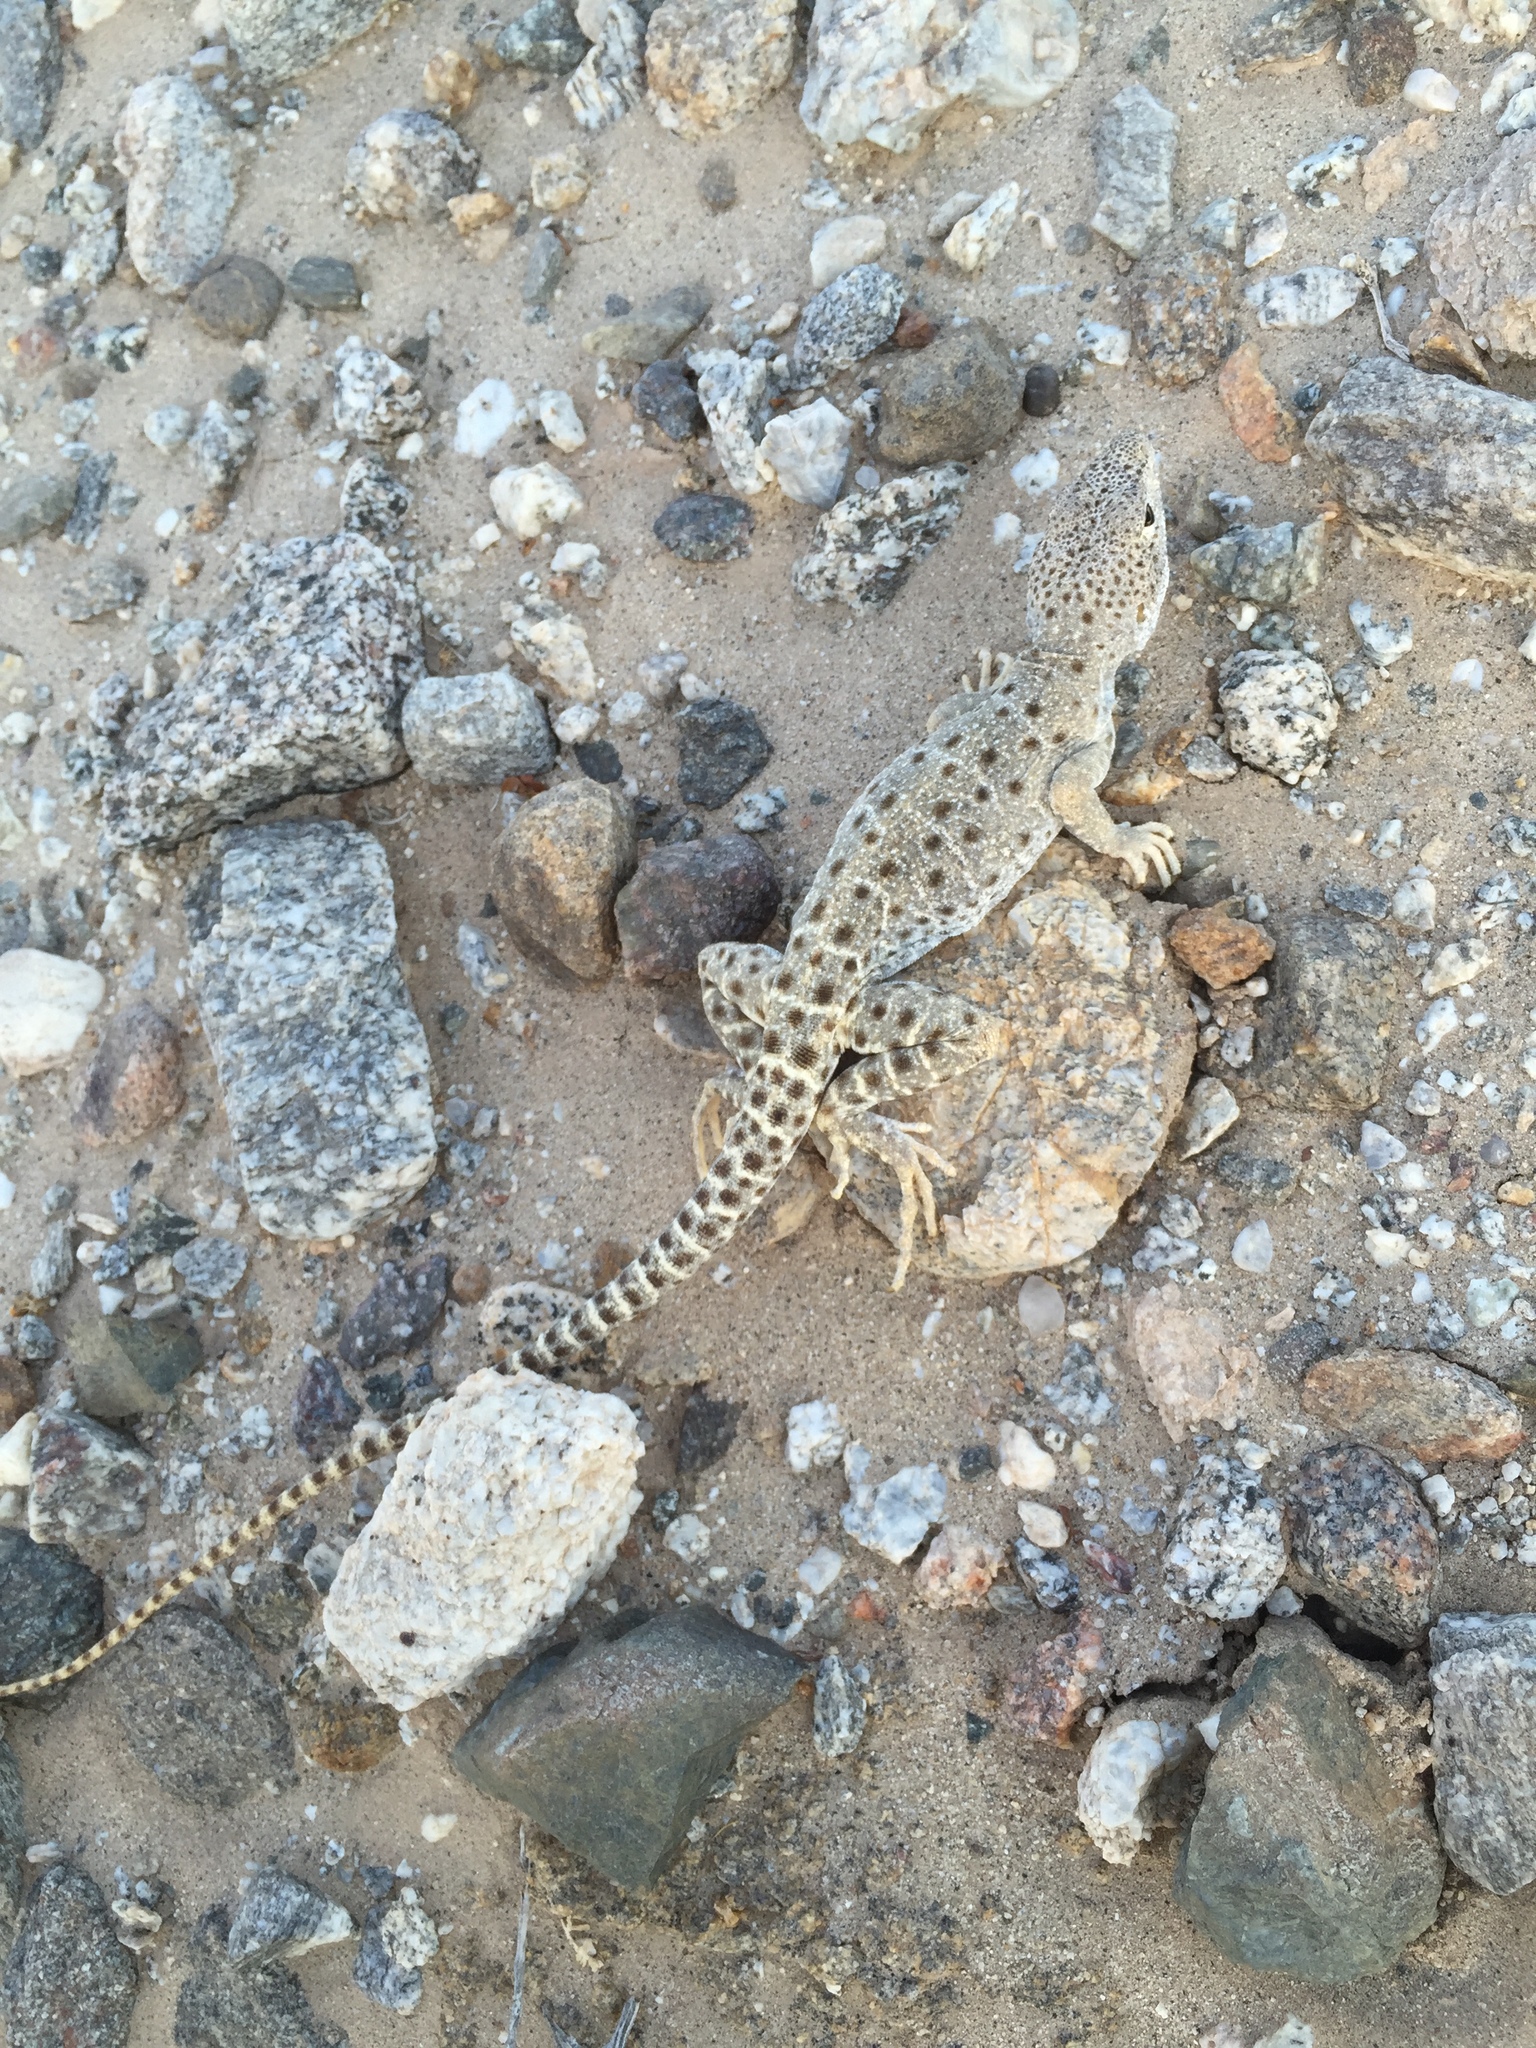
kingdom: Animalia
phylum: Chordata
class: Squamata
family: Crotaphytidae
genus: Gambelia
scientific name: Gambelia wislizenii
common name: Longnose leopard lizard
